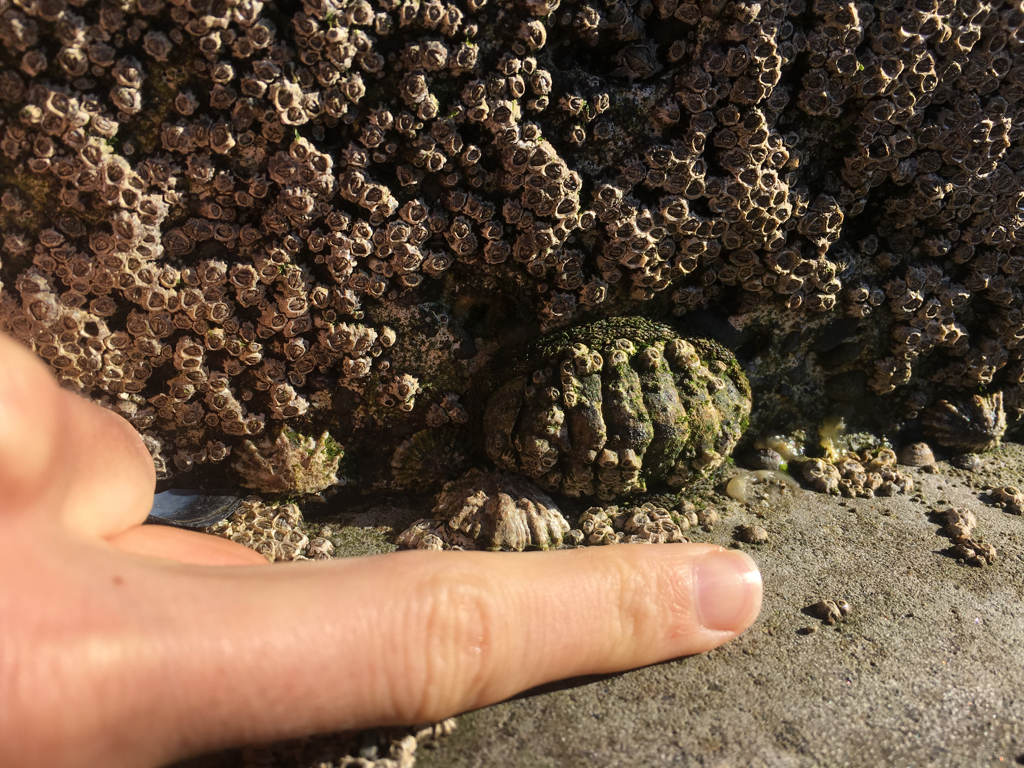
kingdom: Animalia
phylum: Mollusca
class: Polyplacophora
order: Chitonida
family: Chitonidae
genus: Sypharochiton
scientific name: Sypharochiton pelliserpentis
